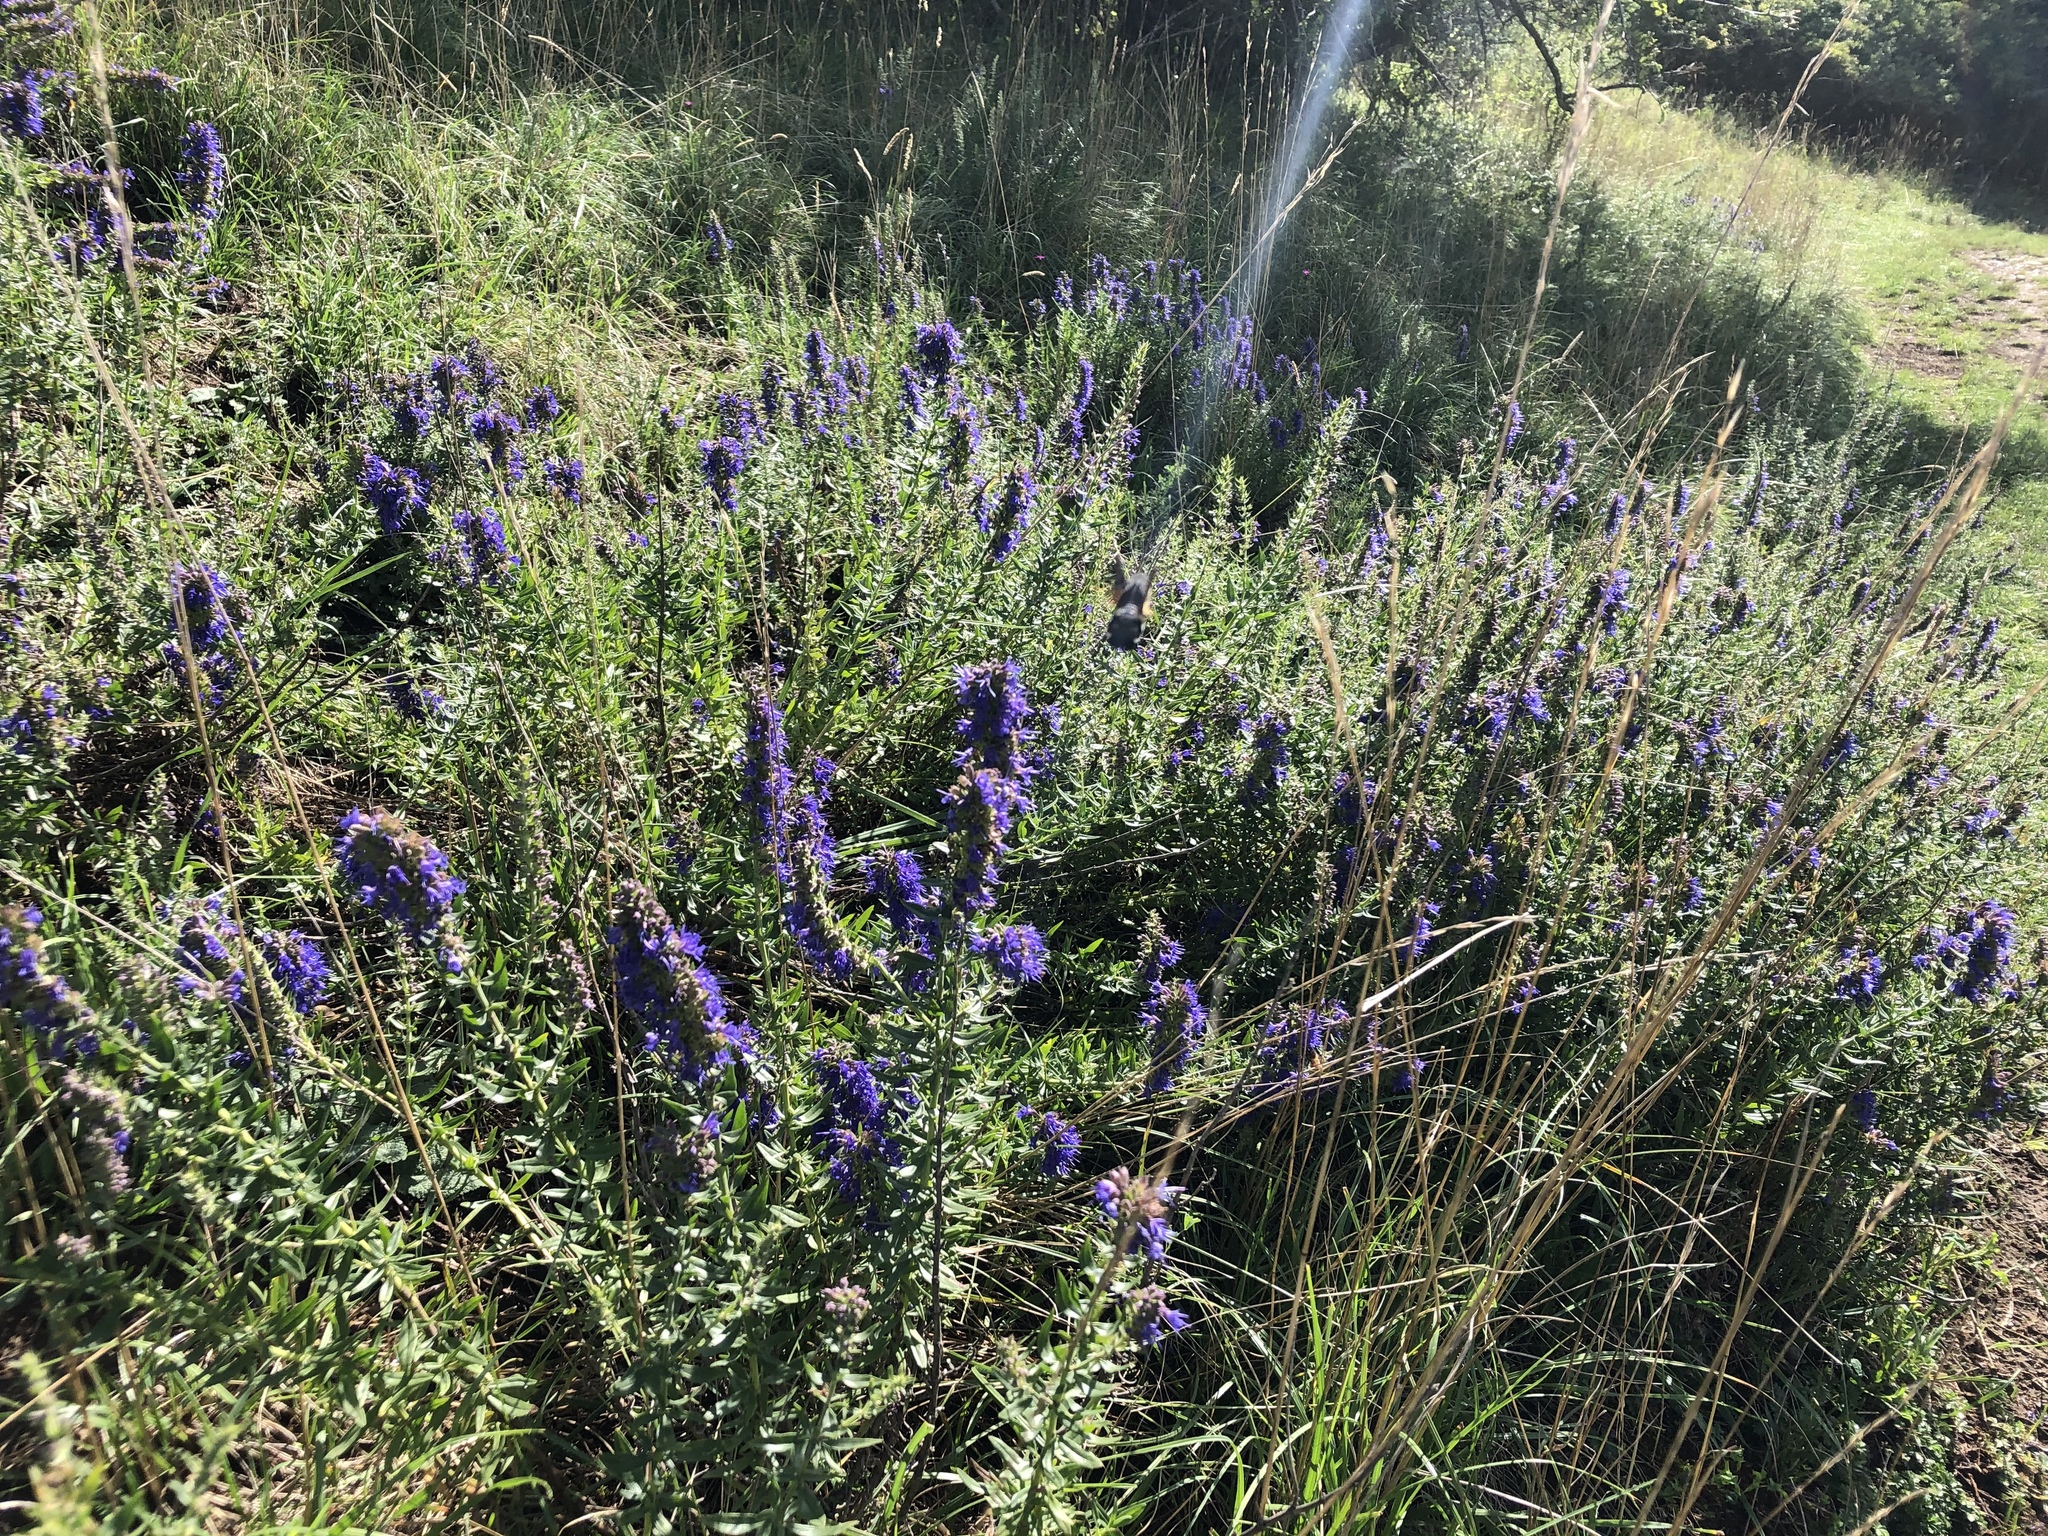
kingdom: Plantae
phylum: Tracheophyta
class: Magnoliopsida
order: Lamiales
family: Lamiaceae
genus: Hyssopus
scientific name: Hyssopus officinalis
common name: Hyssop
